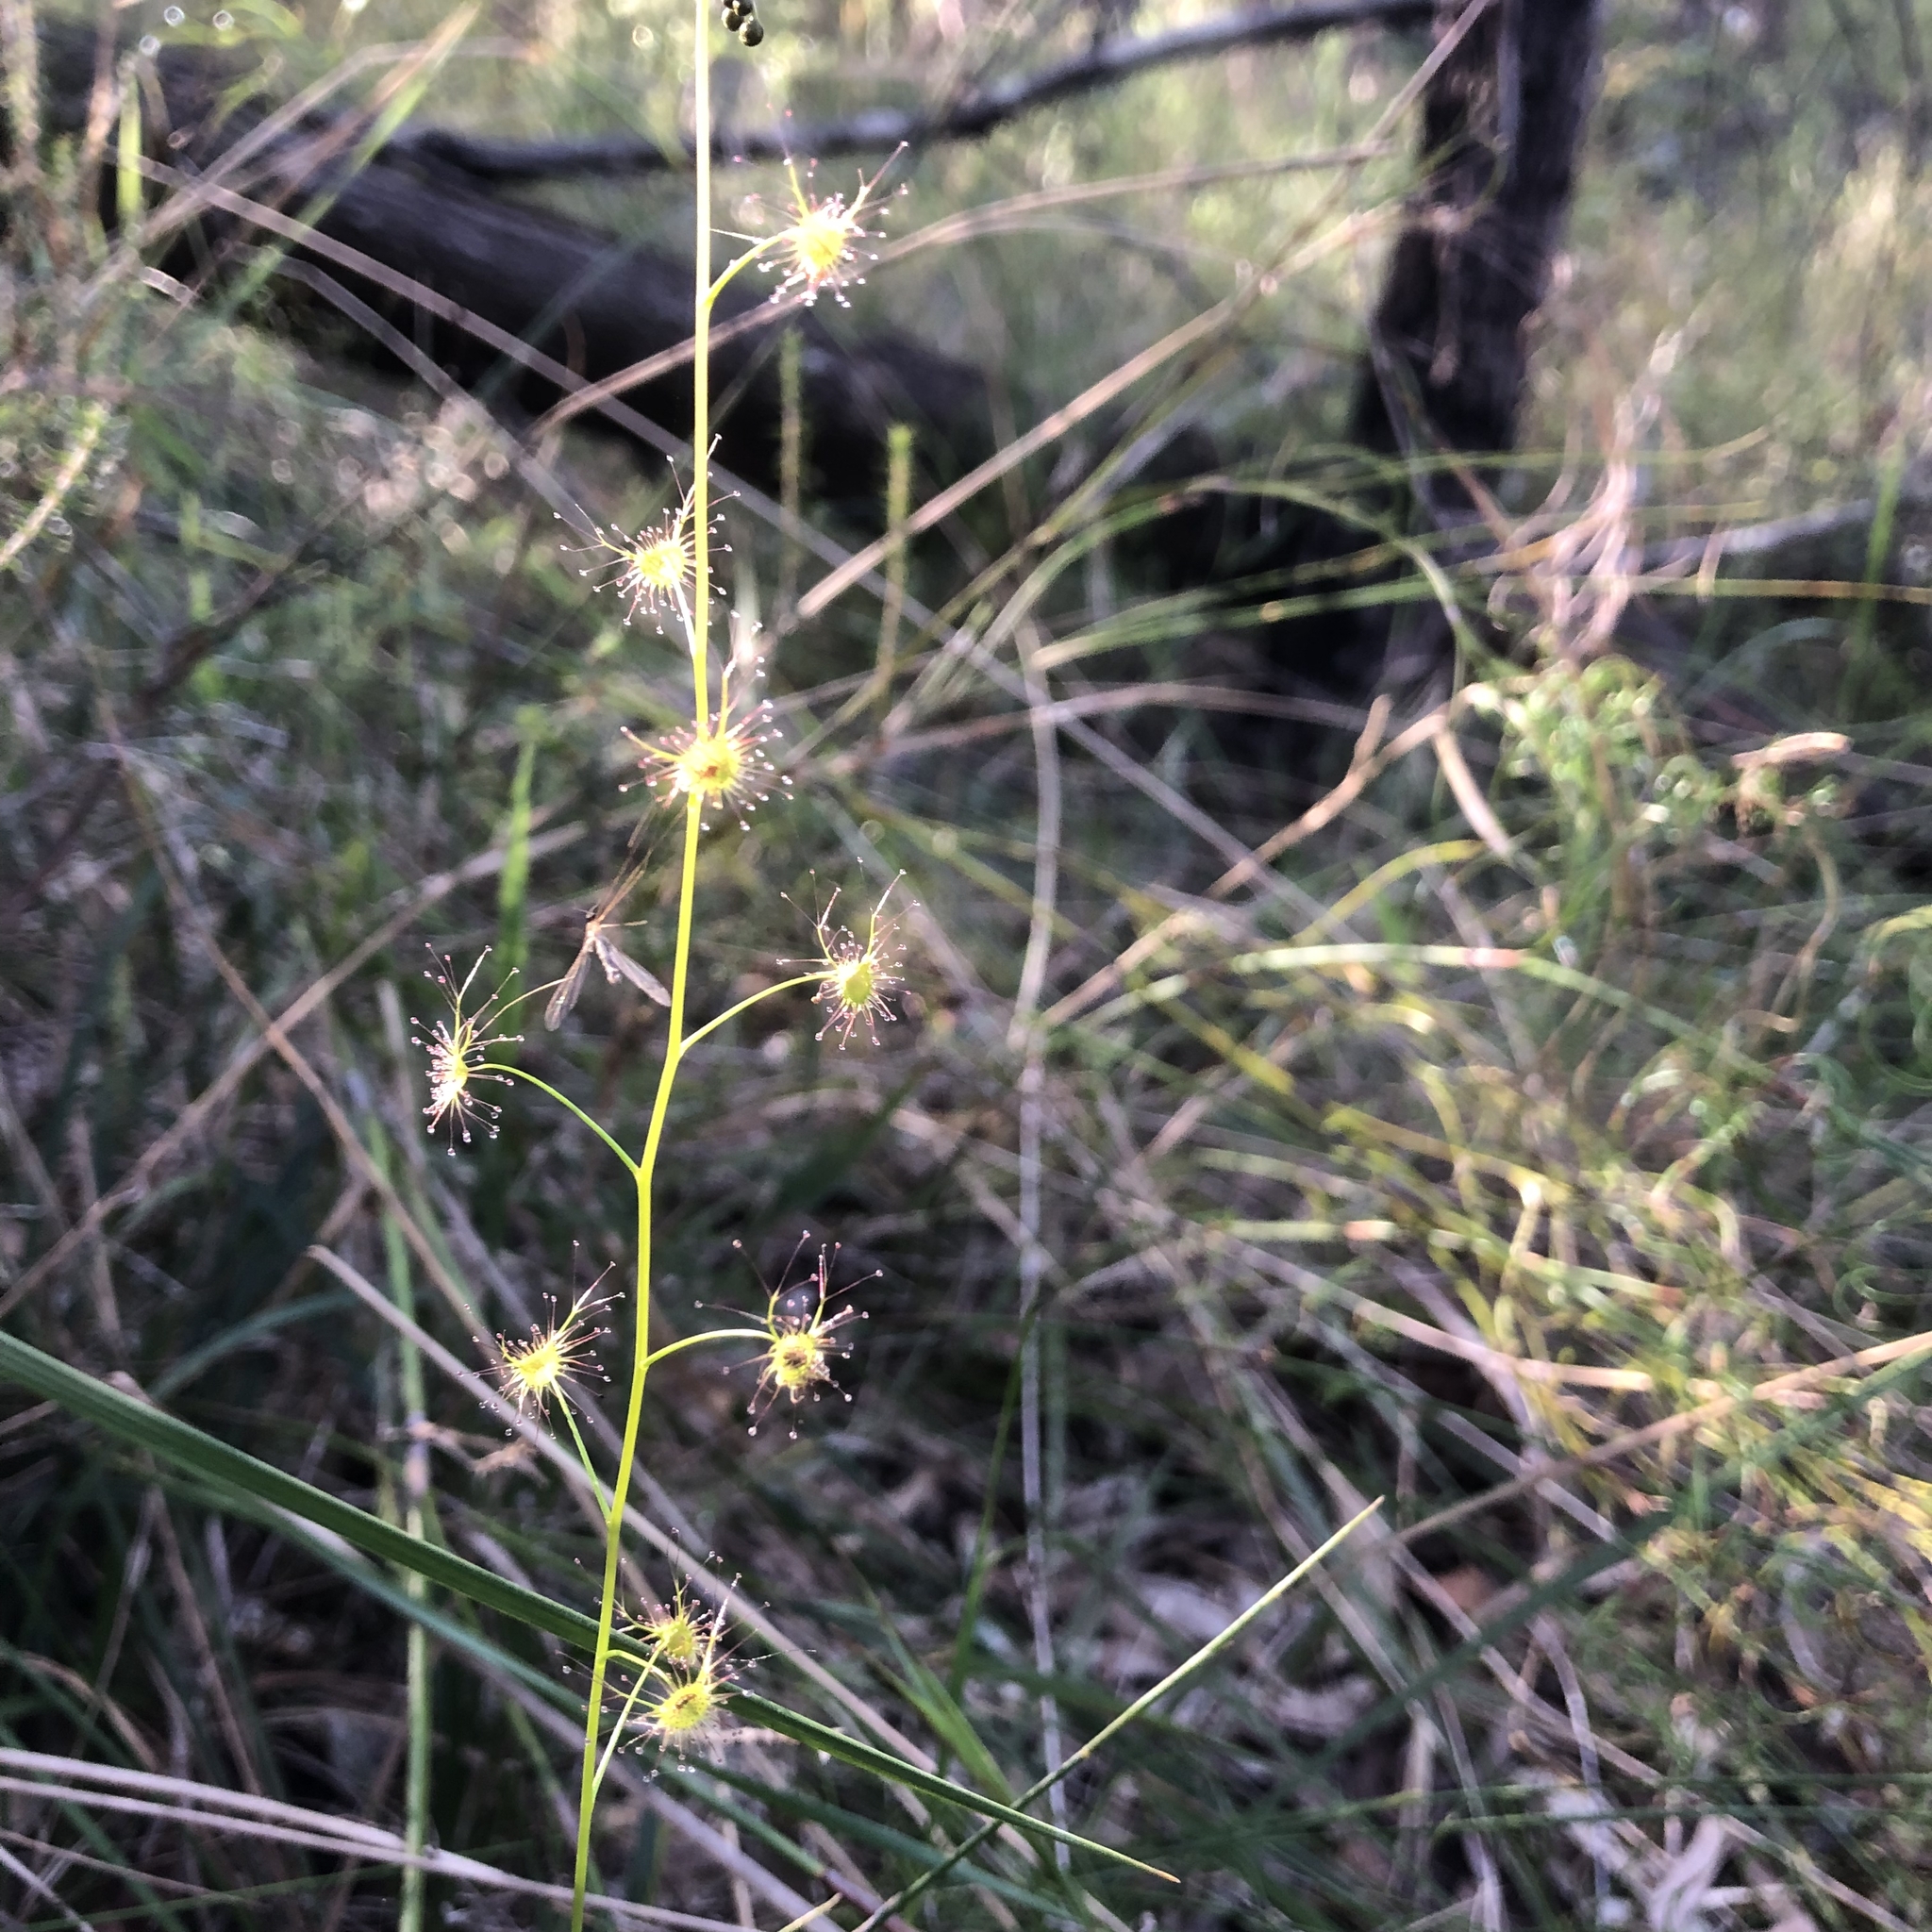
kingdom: Plantae
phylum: Tracheophyta
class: Magnoliopsida
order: Caryophyllales
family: Droseraceae
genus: Drosera
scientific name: Drosera peltata
